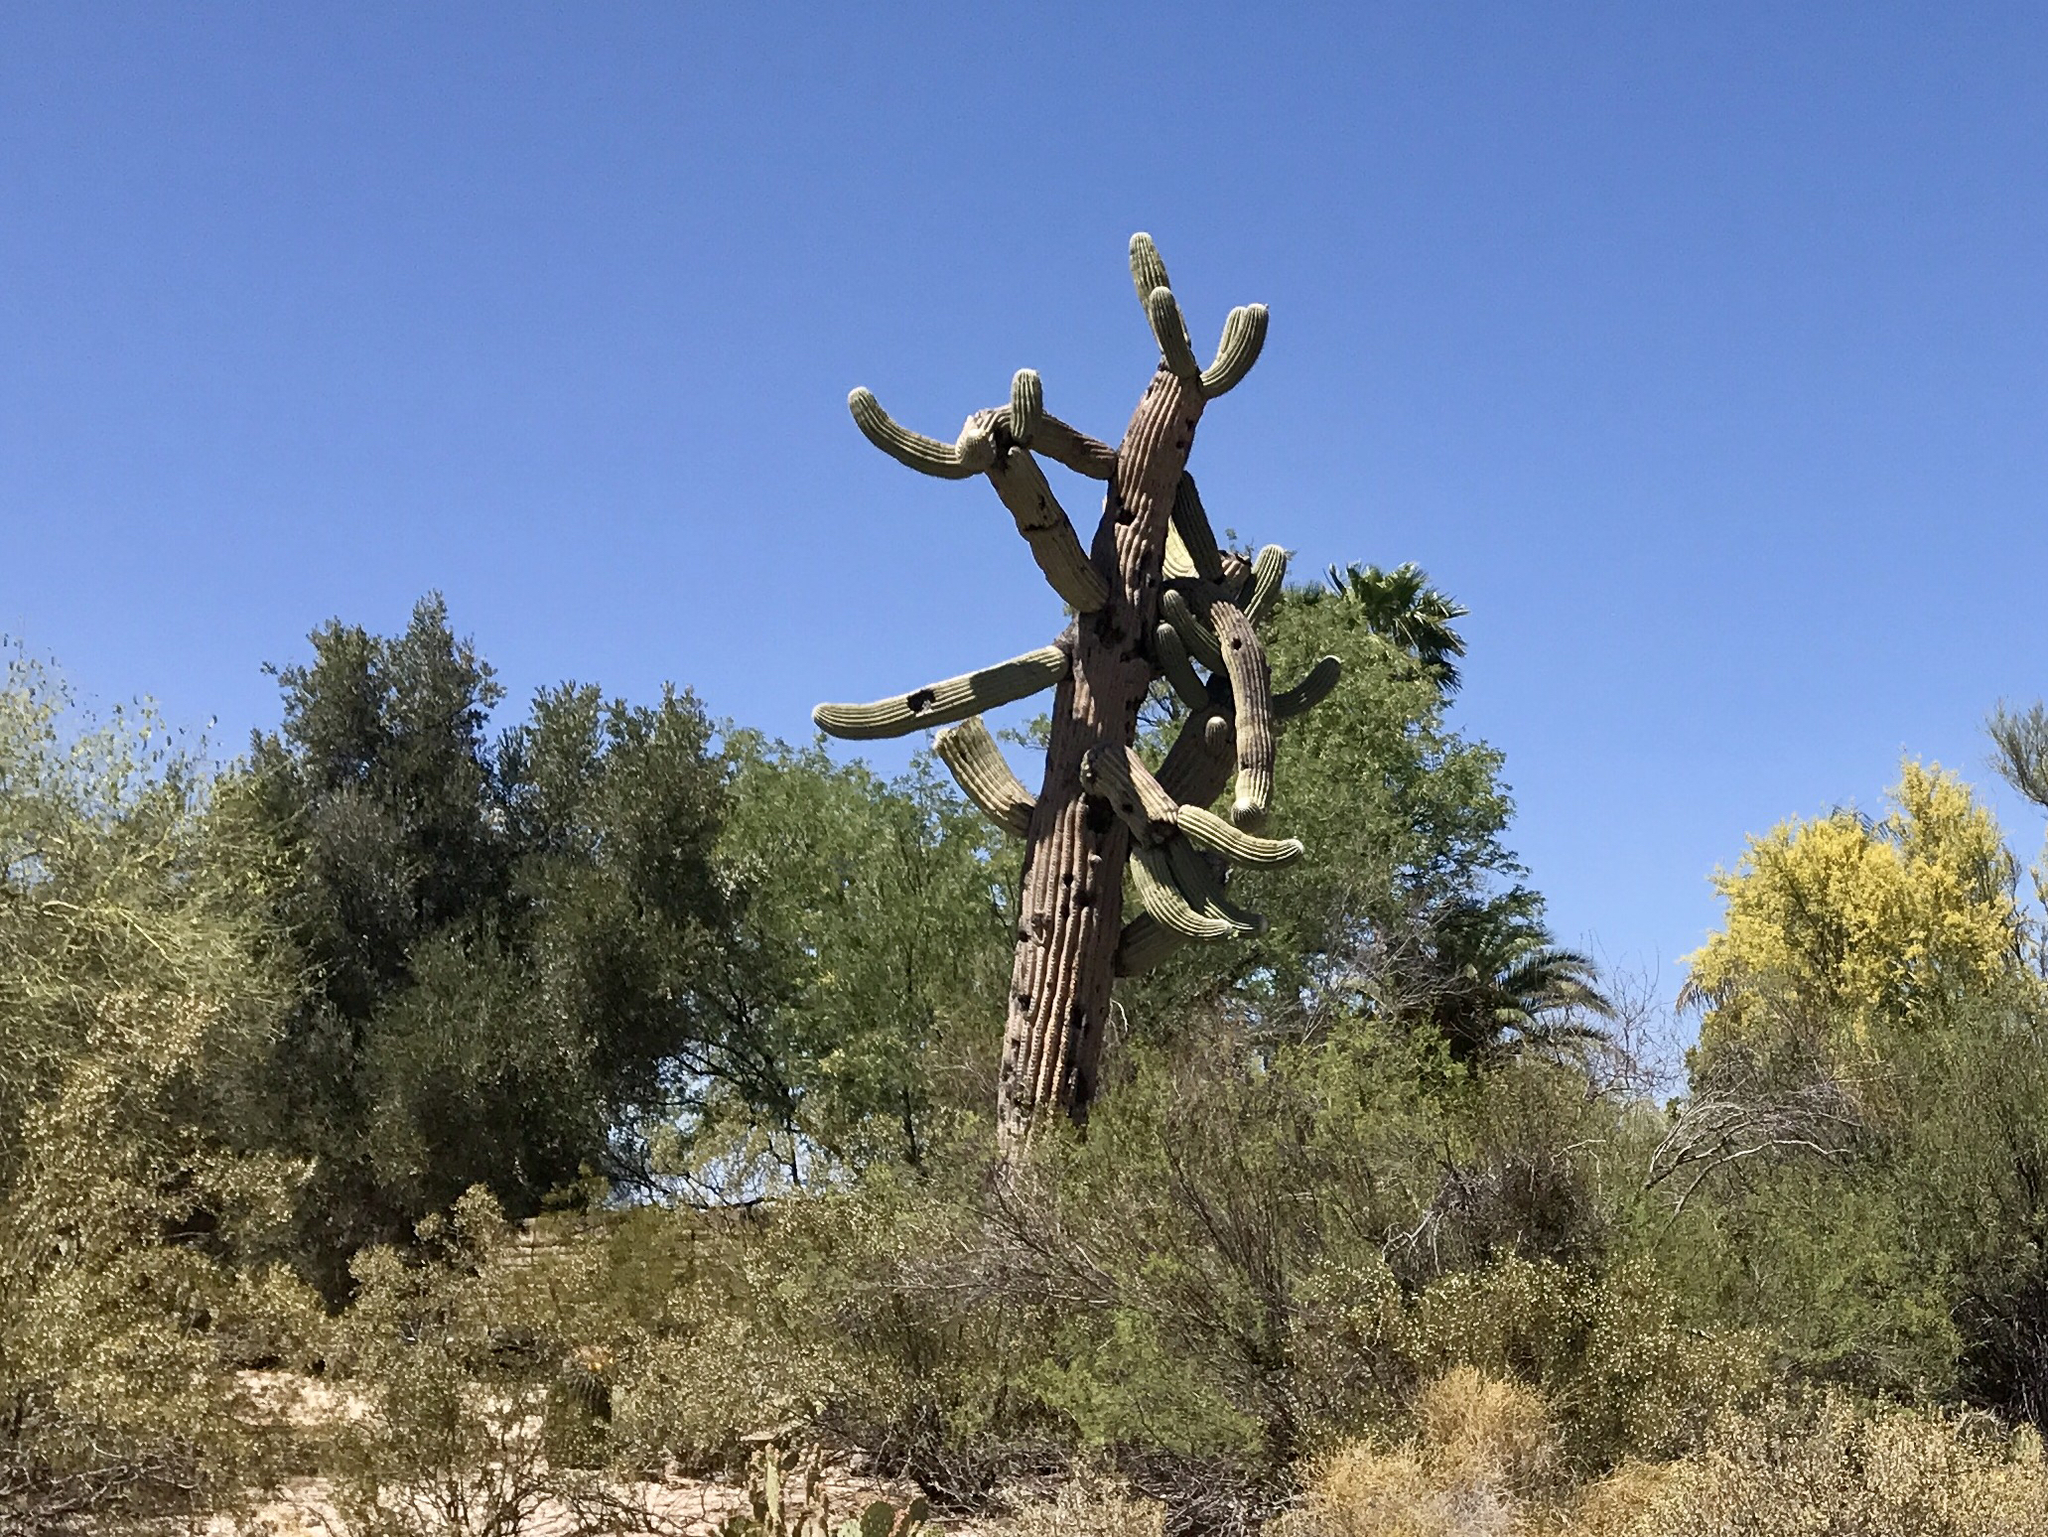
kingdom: Plantae
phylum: Tracheophyta
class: Magnoliopsida
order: Caryophyllales
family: Cactaceae
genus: Carnegiea
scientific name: Carnegiea gigantea
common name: Saguaro
